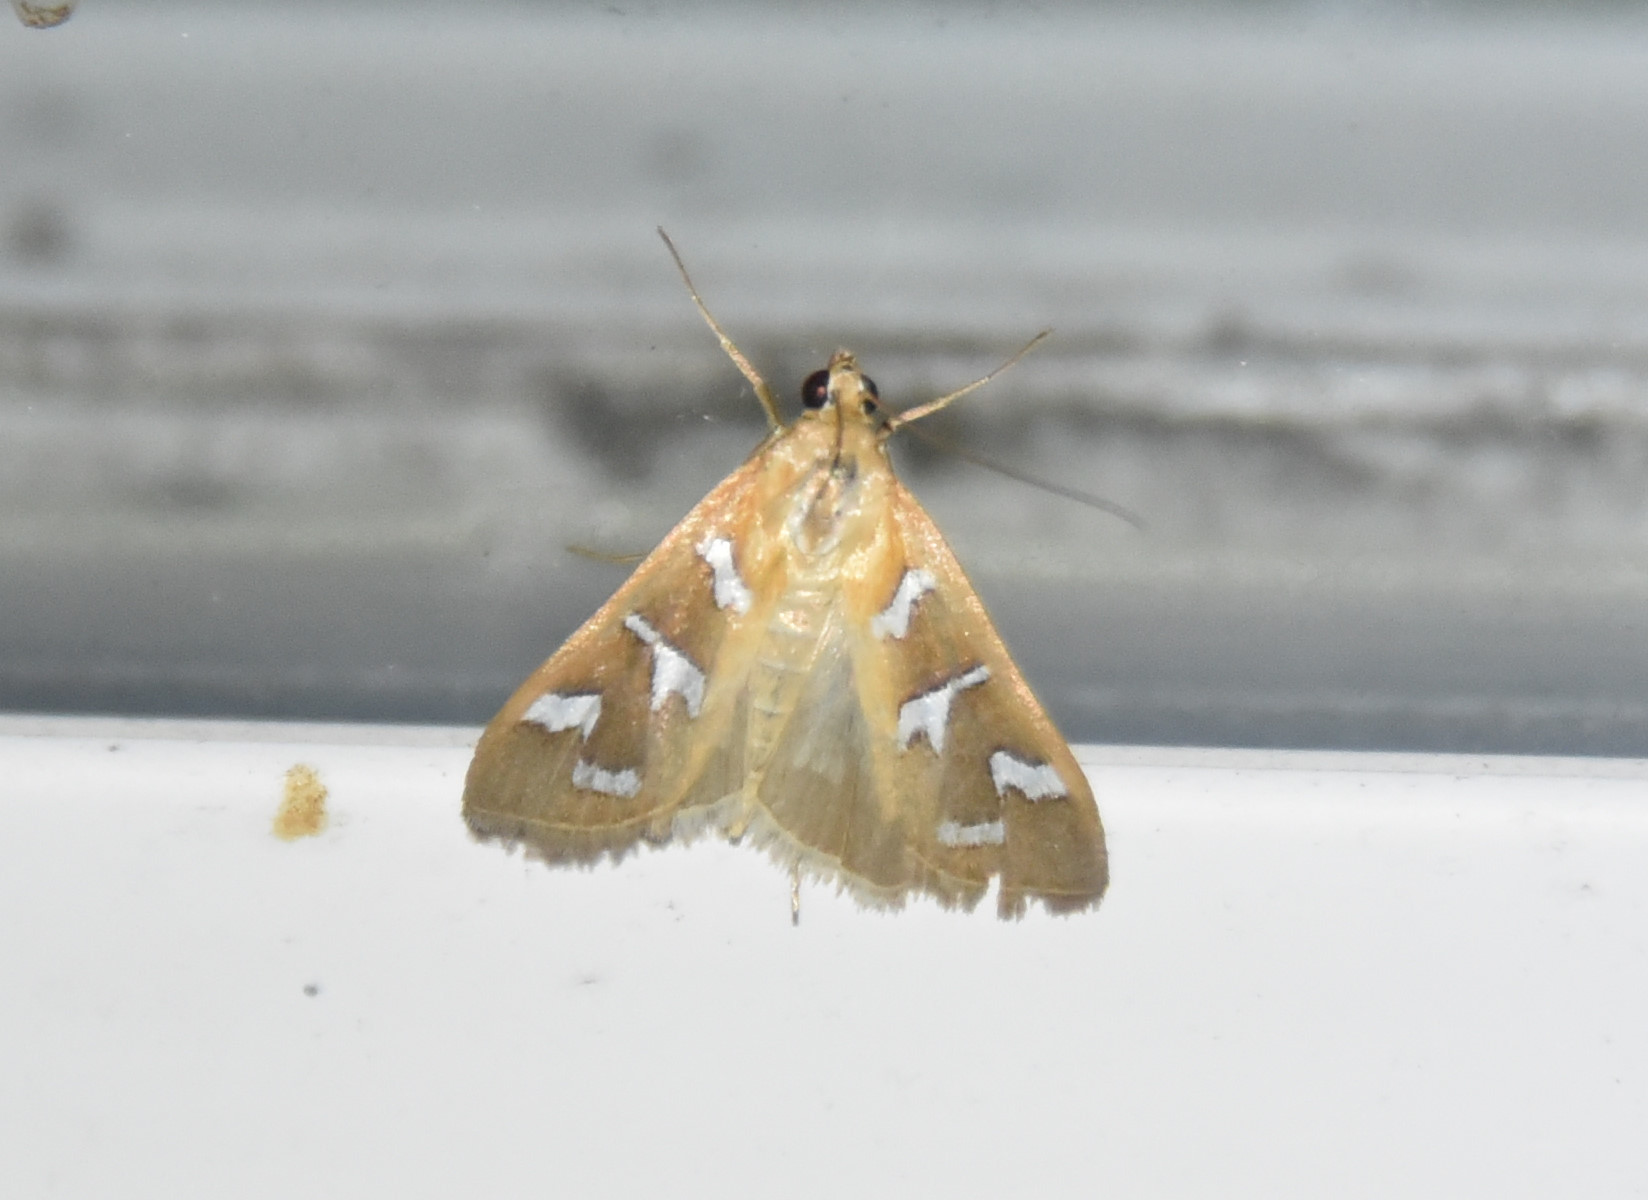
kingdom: Animalia
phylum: Arthropoda
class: Insecta
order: Lepidoptera
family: Crambidae
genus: Diastictis
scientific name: Diastictis fracturalis
